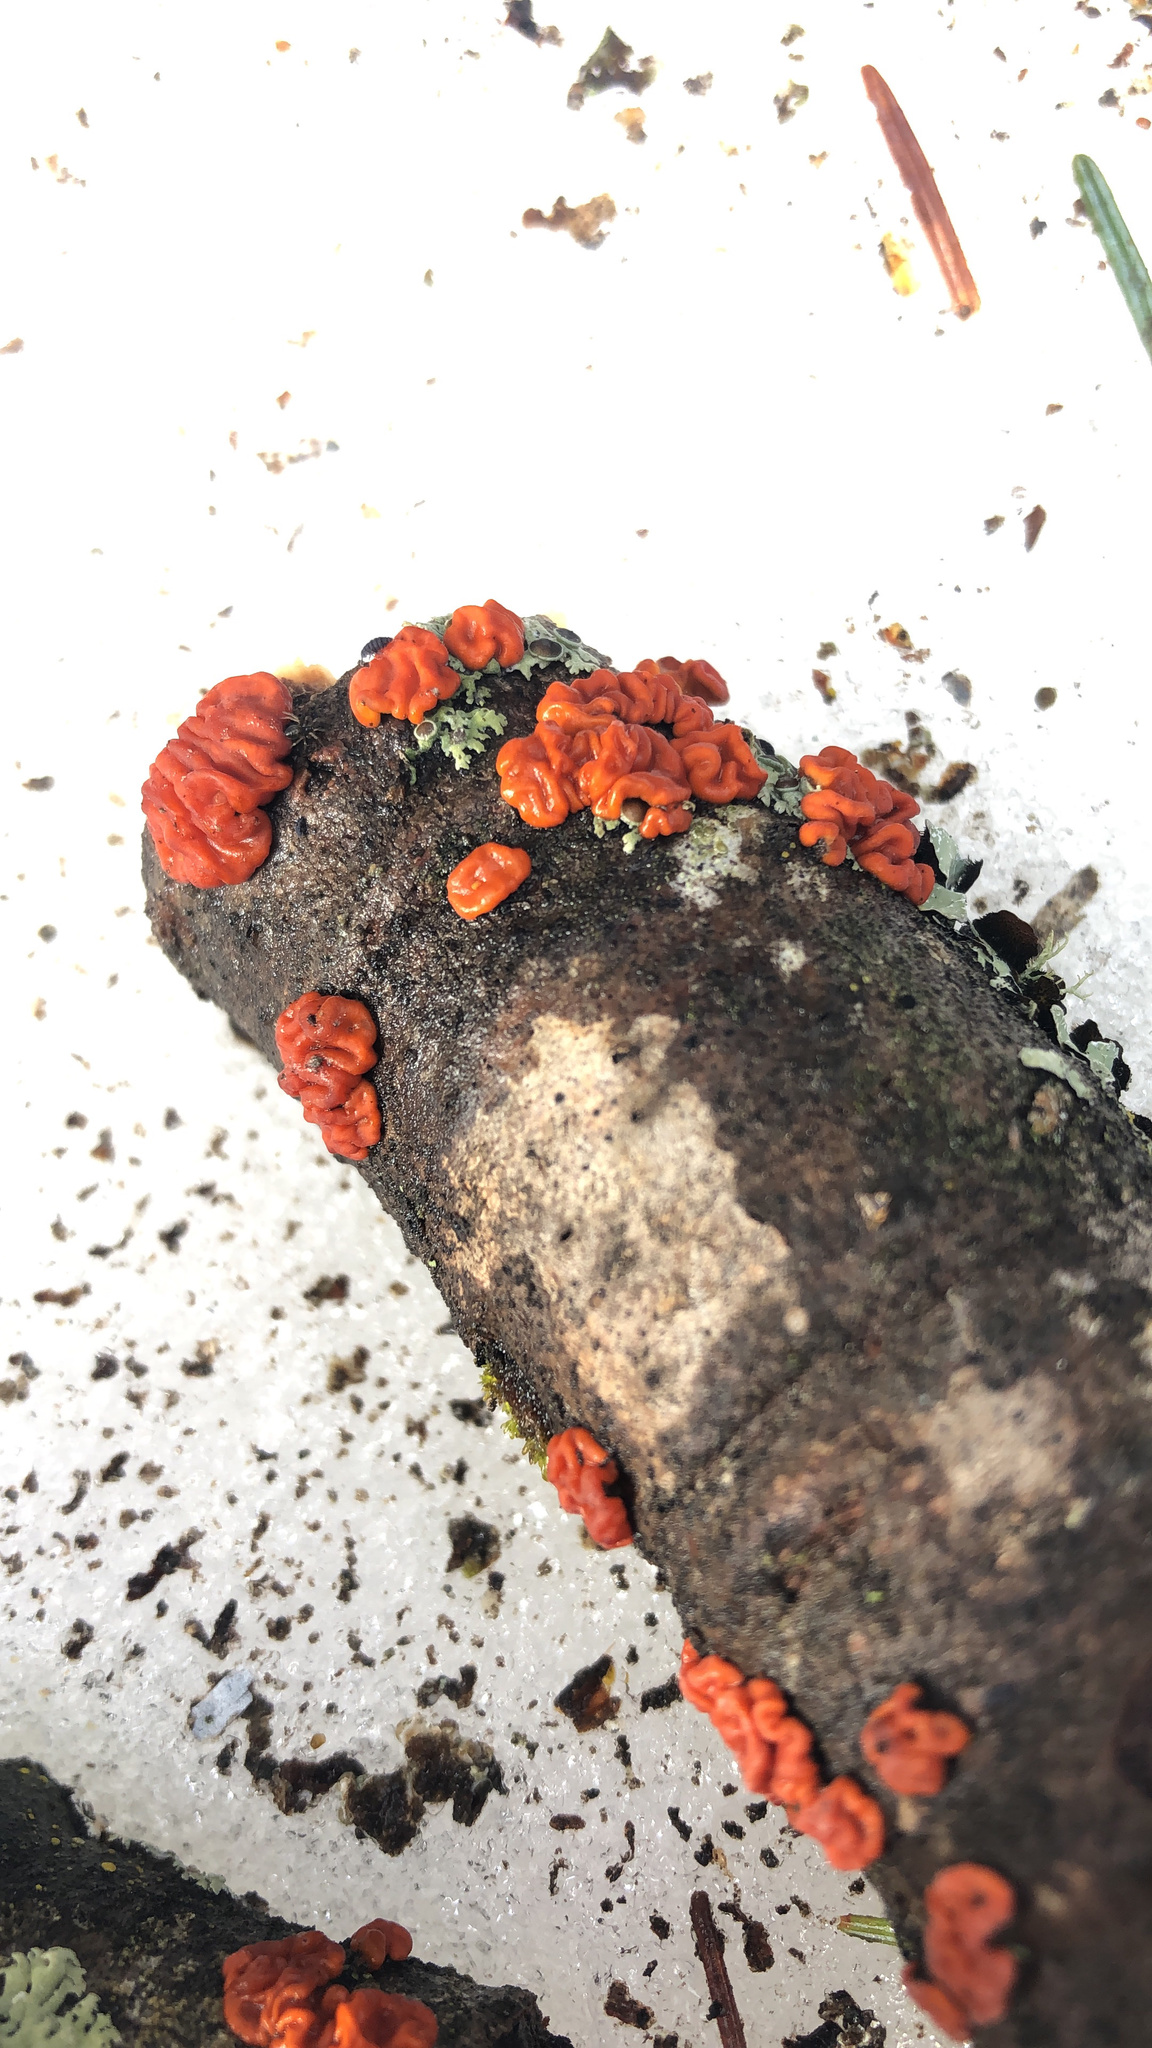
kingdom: Fungi
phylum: Basidiomycota
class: Agaricomycetes
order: Russulales
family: Peniophoraceae
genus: Peniophora
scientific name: Peniophora rufa
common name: Red tree brain fungus
